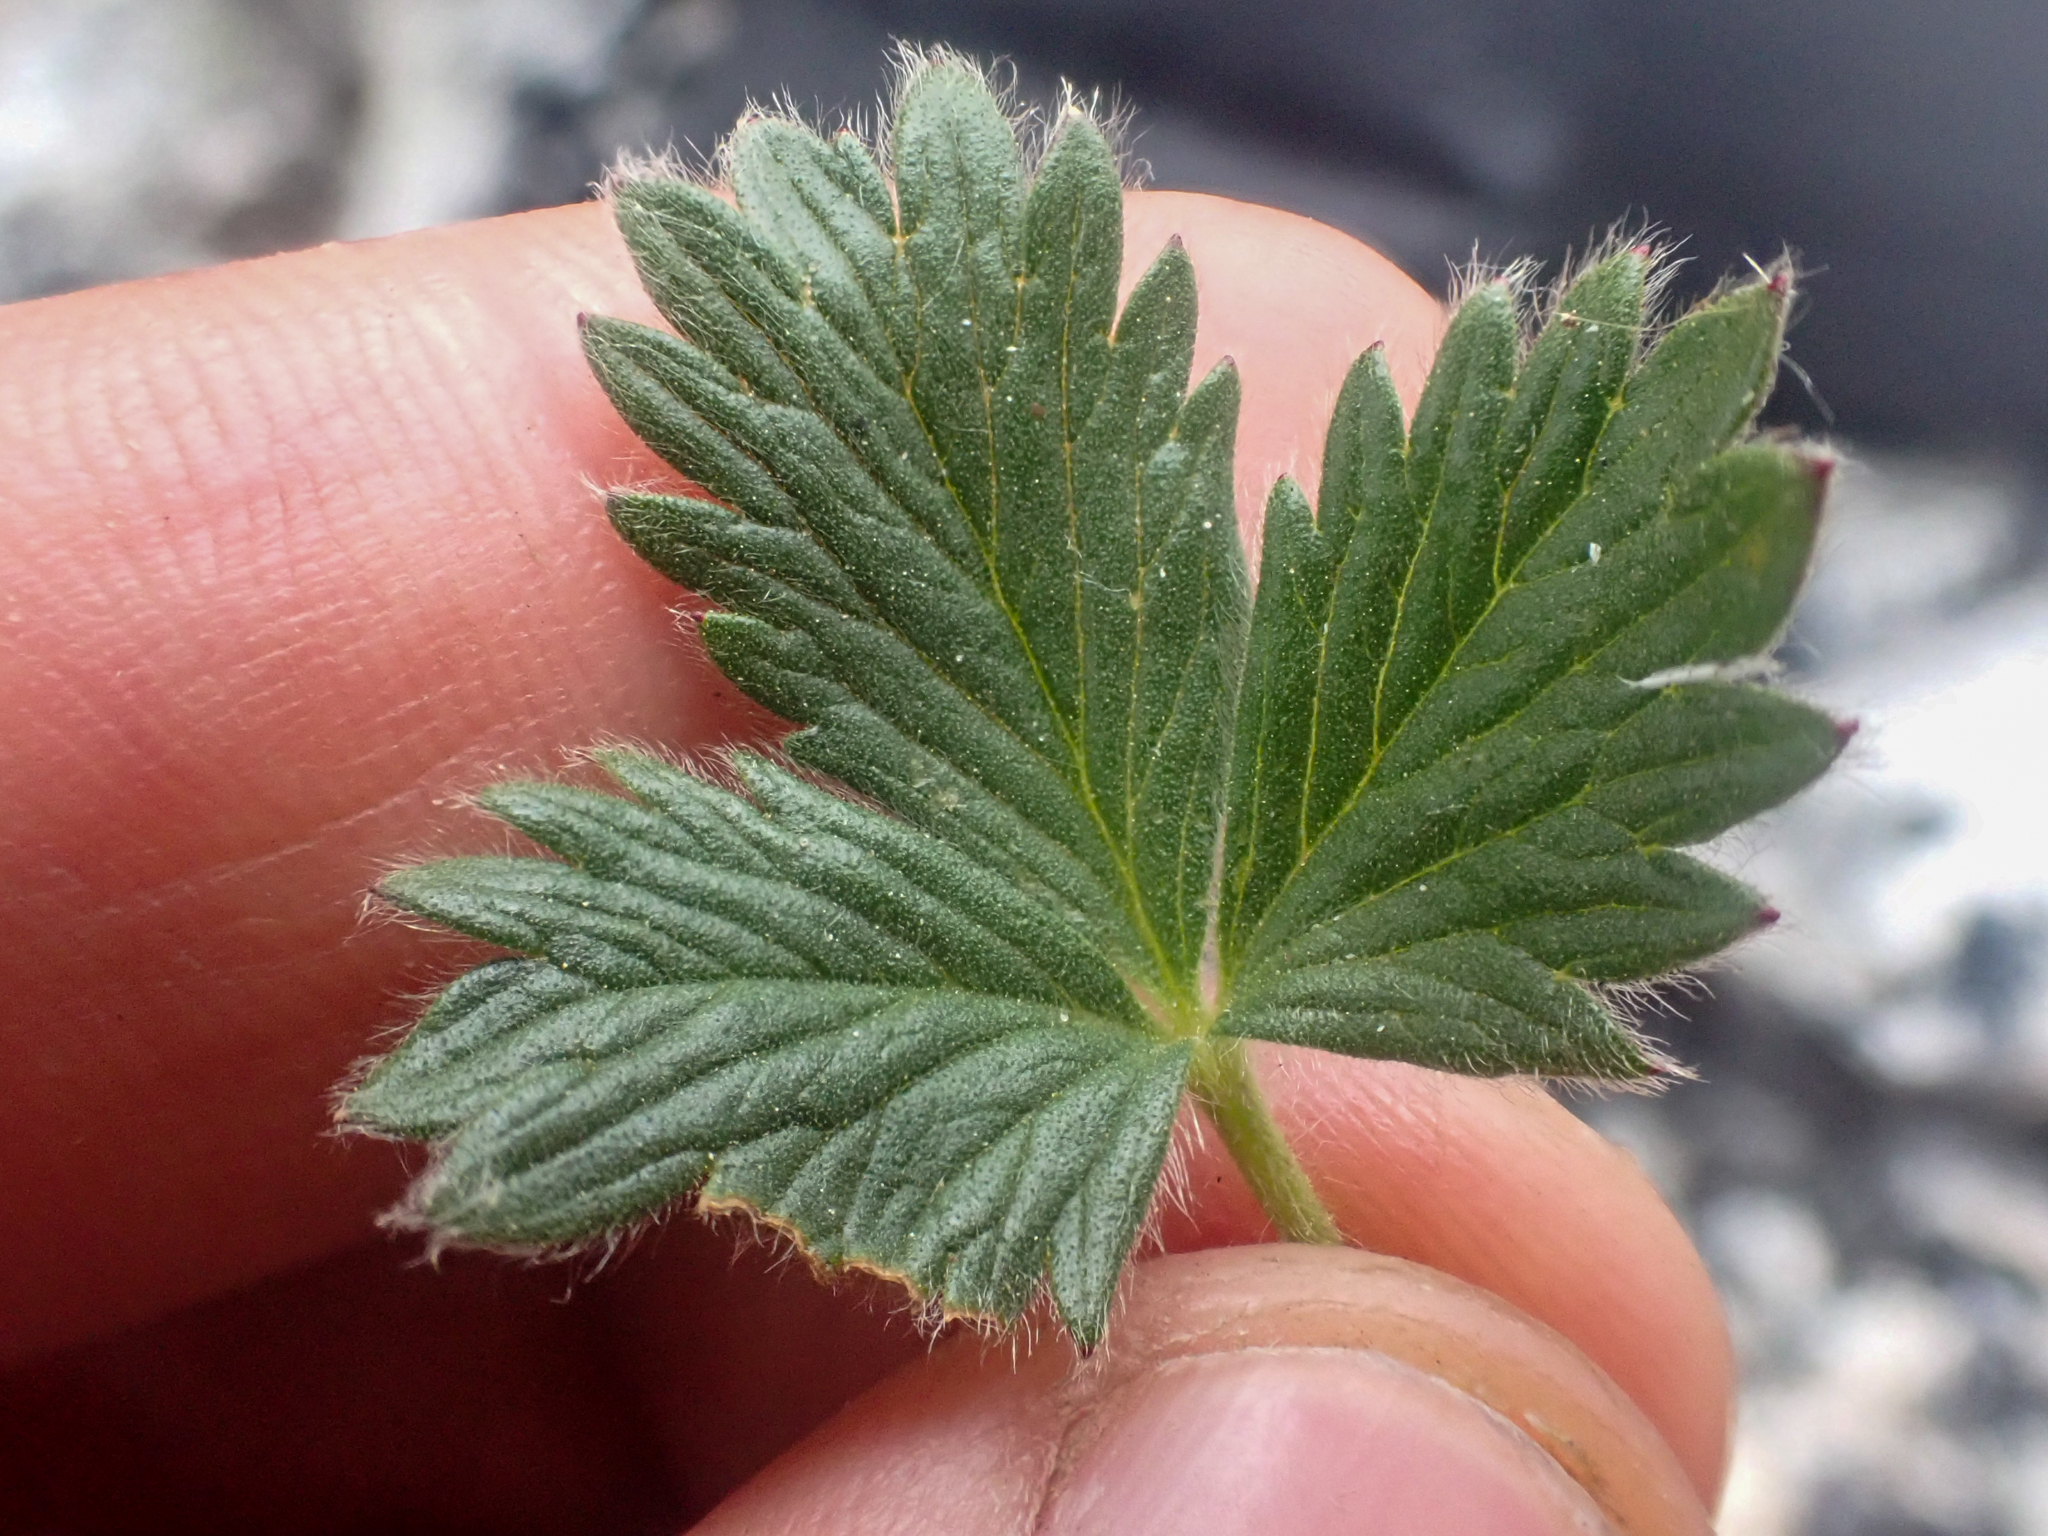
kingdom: Plantae
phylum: Tracheophyta
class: Magnoliopsida
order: Rosales
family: Rosaceae
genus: Potentilla
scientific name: Potentilla hyparctica
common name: Arctic cinquefoil
